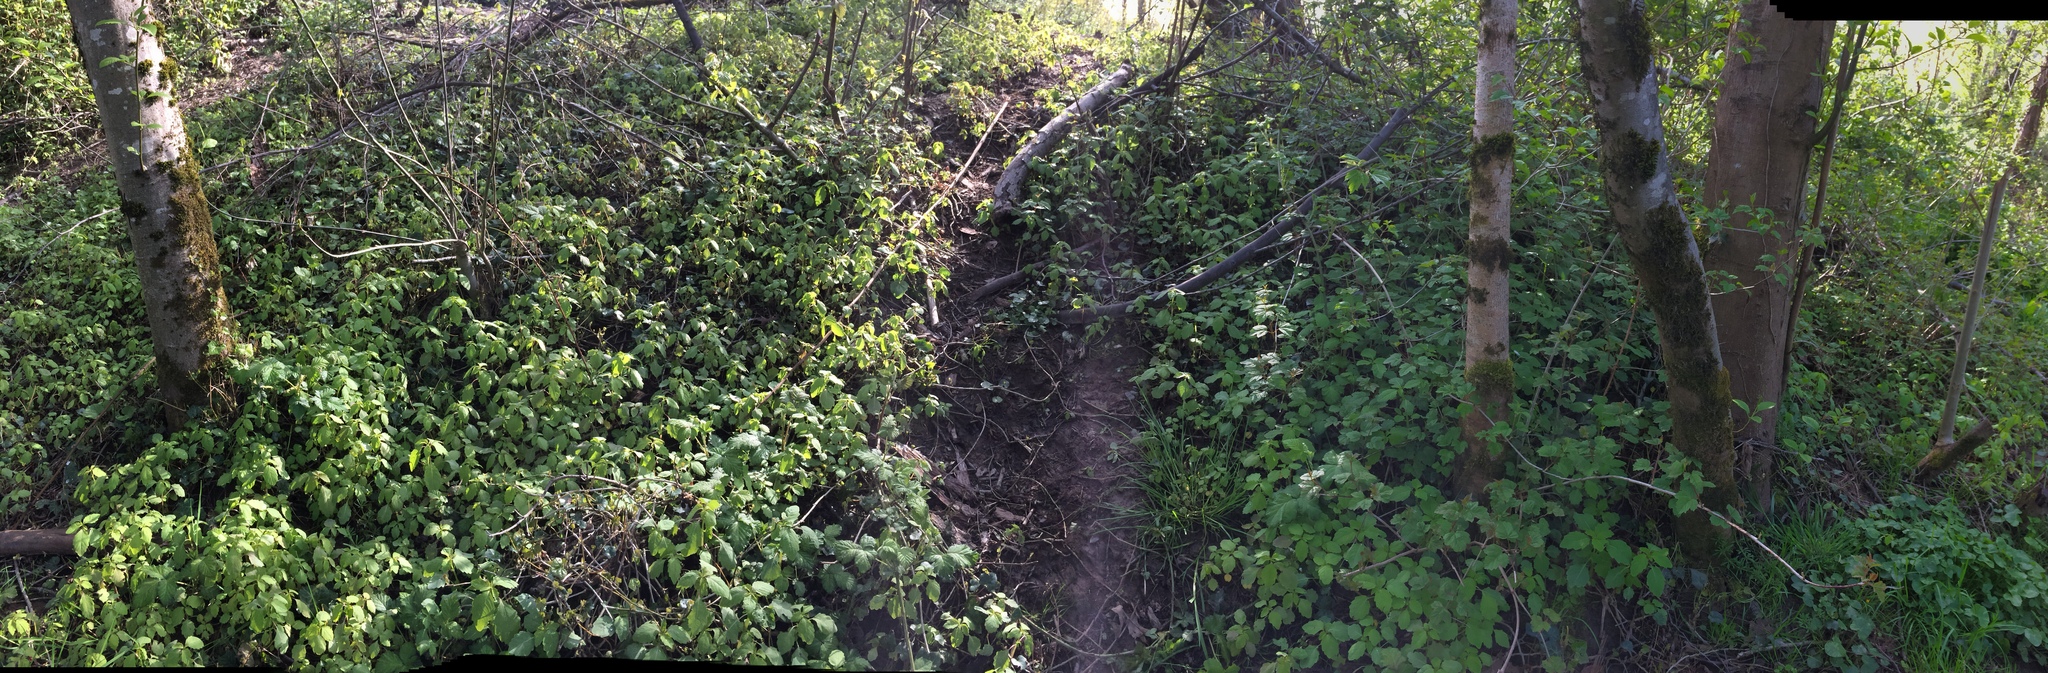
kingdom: Plantae
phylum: Tracheophyta
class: Magnoliopsida
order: Ranunculales
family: Ranunculaceae
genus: Ficaria
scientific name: Ficaria verna
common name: Lesser celandine
